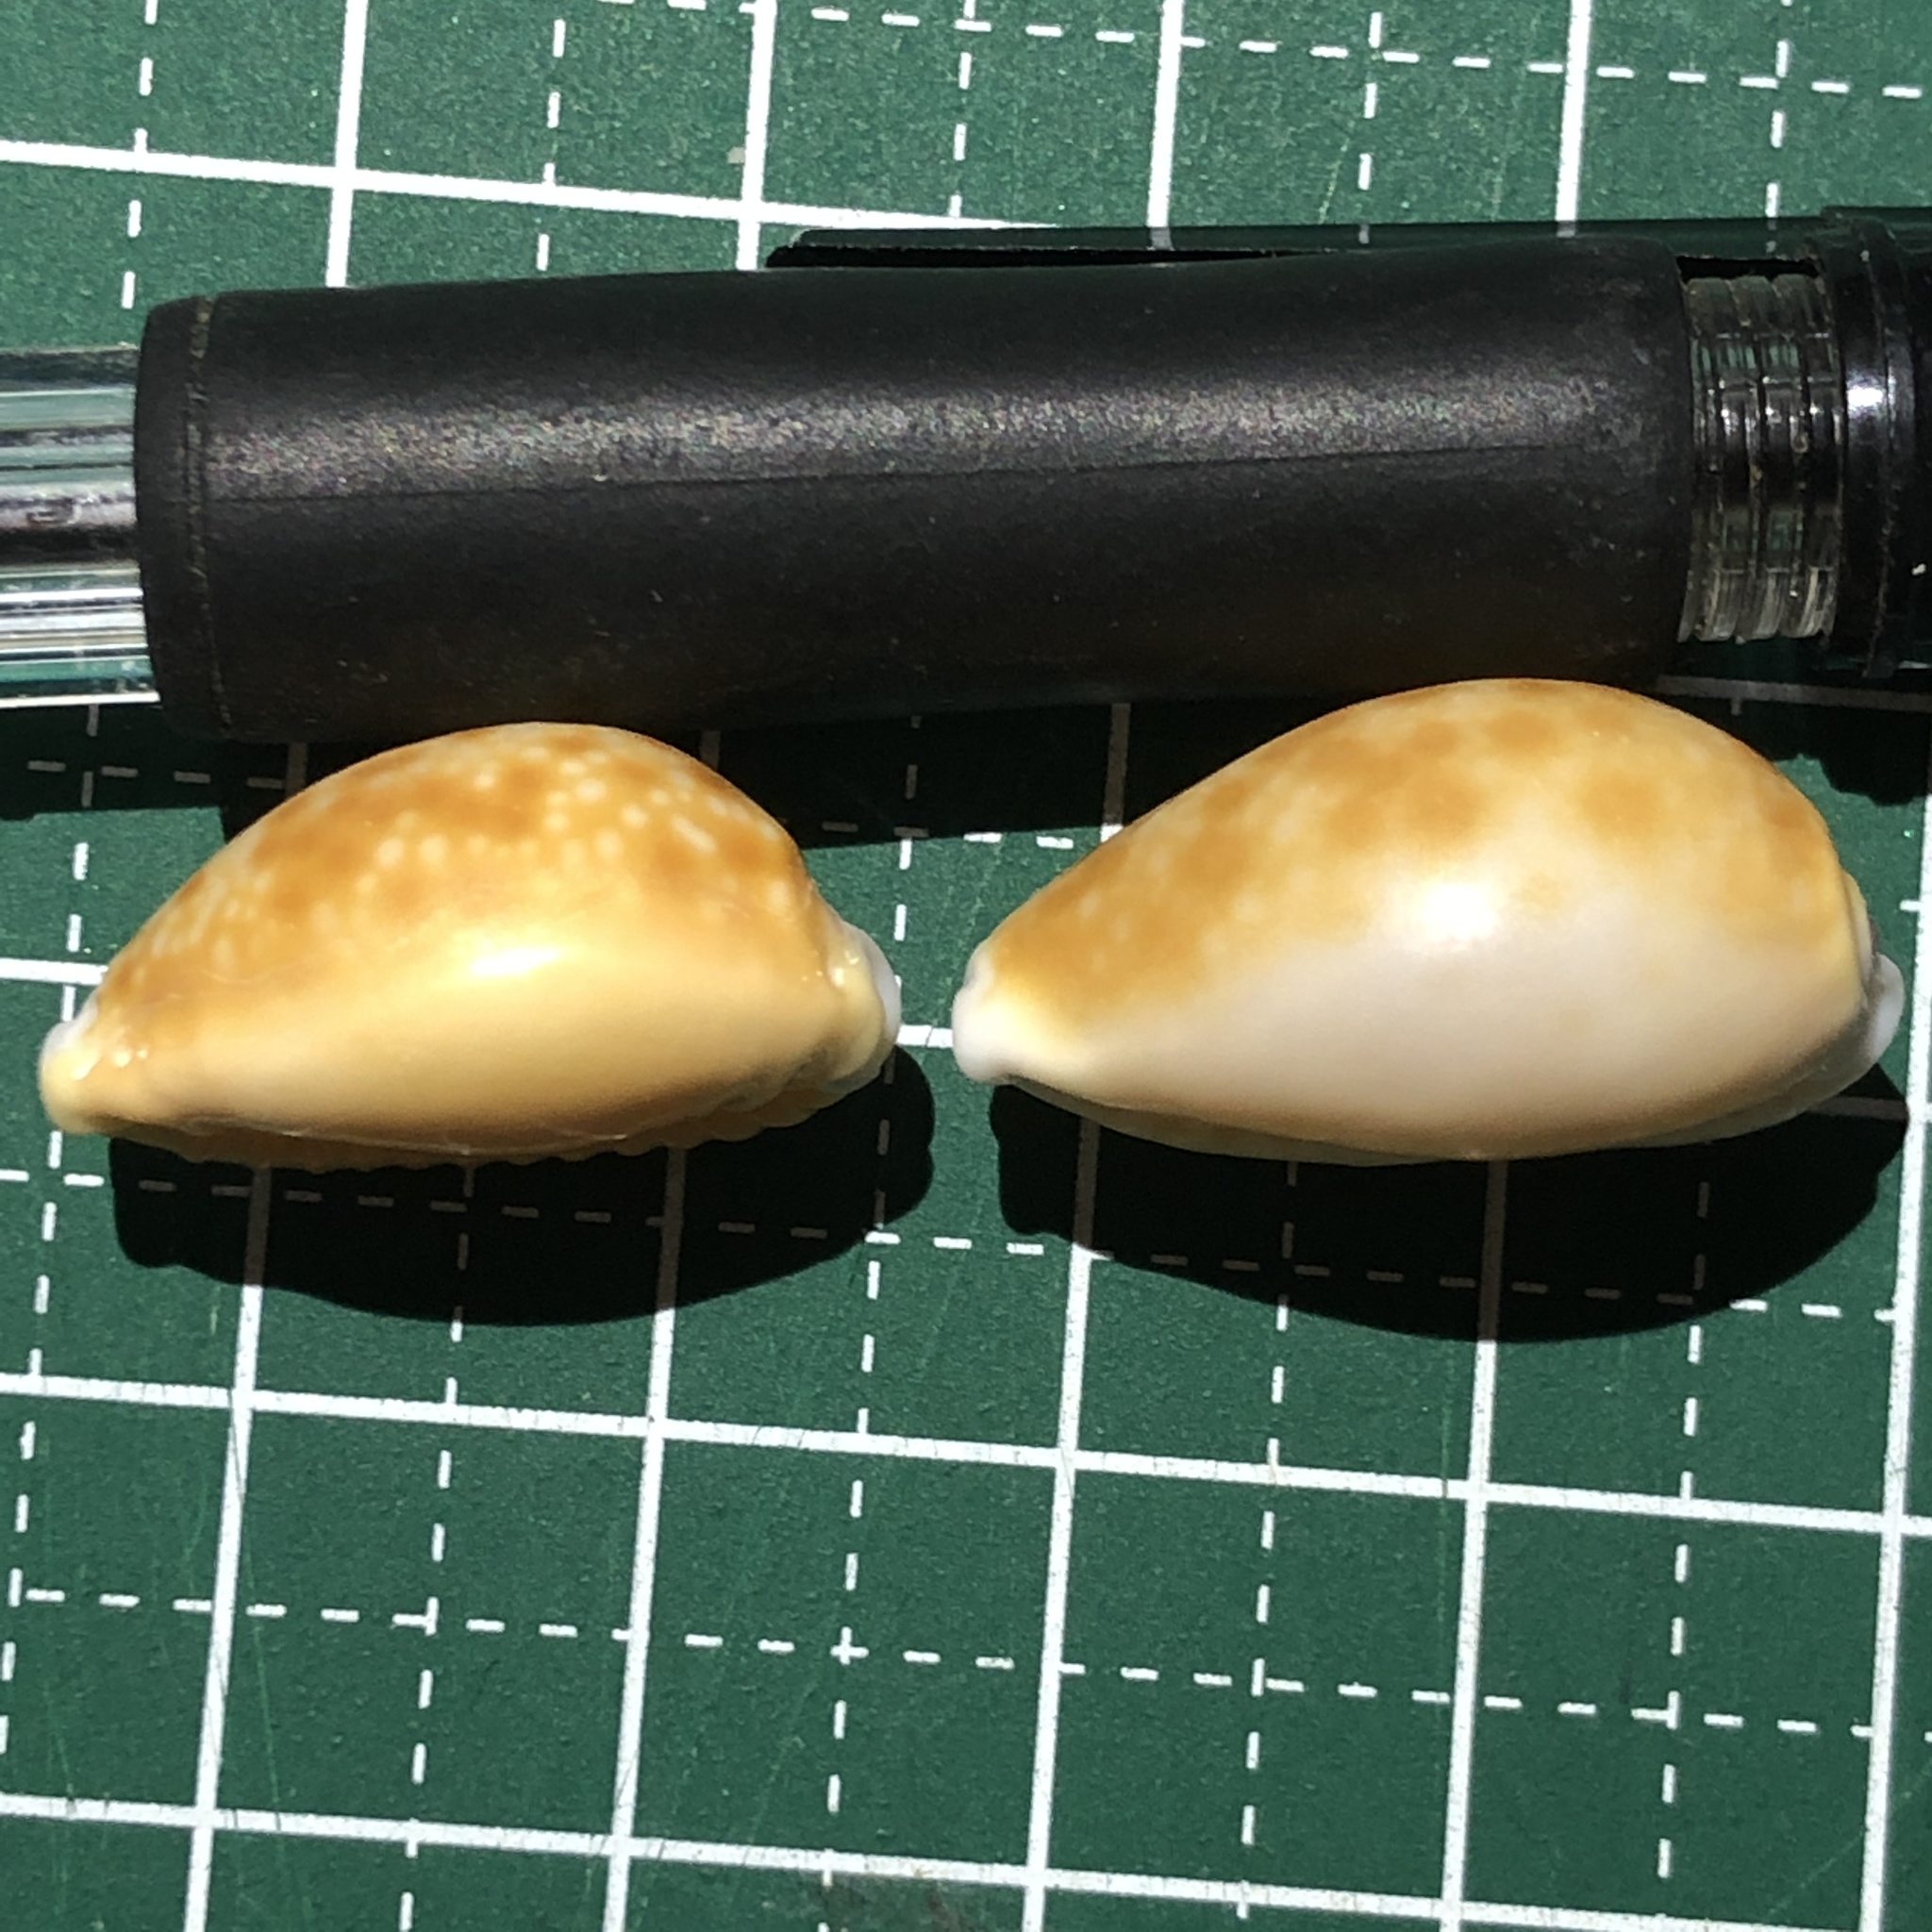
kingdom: Animalia
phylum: Mollusca
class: Gastropoda
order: Littorinimorpha
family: Cypraeidae
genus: Naria
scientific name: Naria helvola
